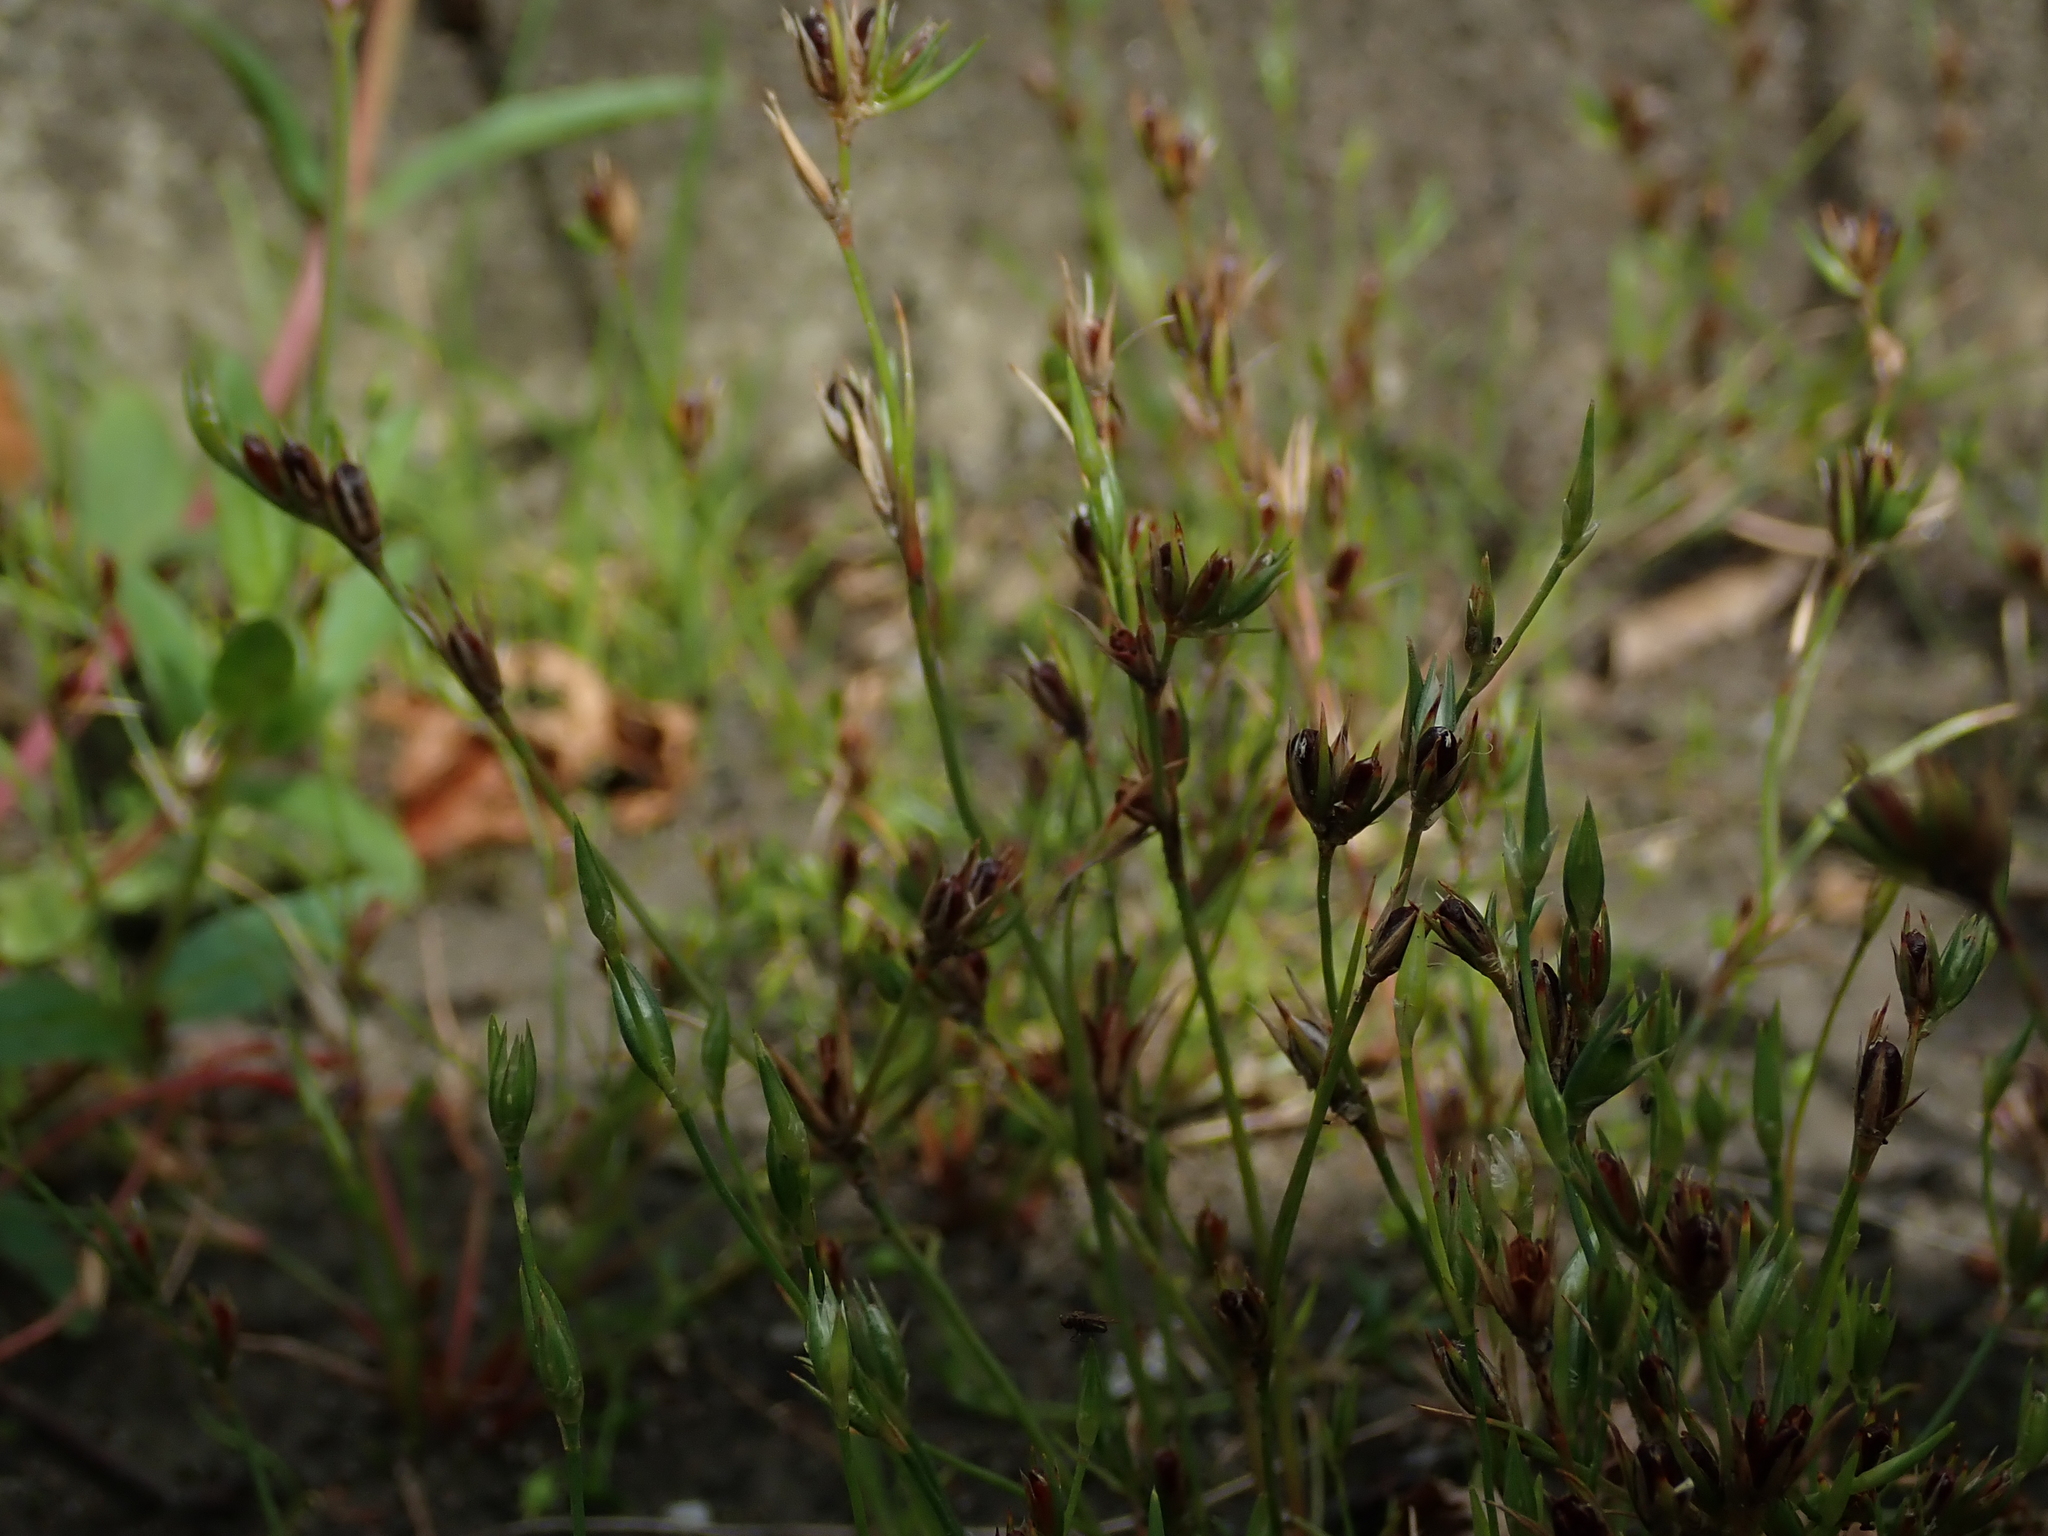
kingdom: Plantae
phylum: Tracheophyta
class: Liliopsida
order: Poales
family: Juncaceae
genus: Juncus
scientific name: Juncus bufonius
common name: Toad rush
